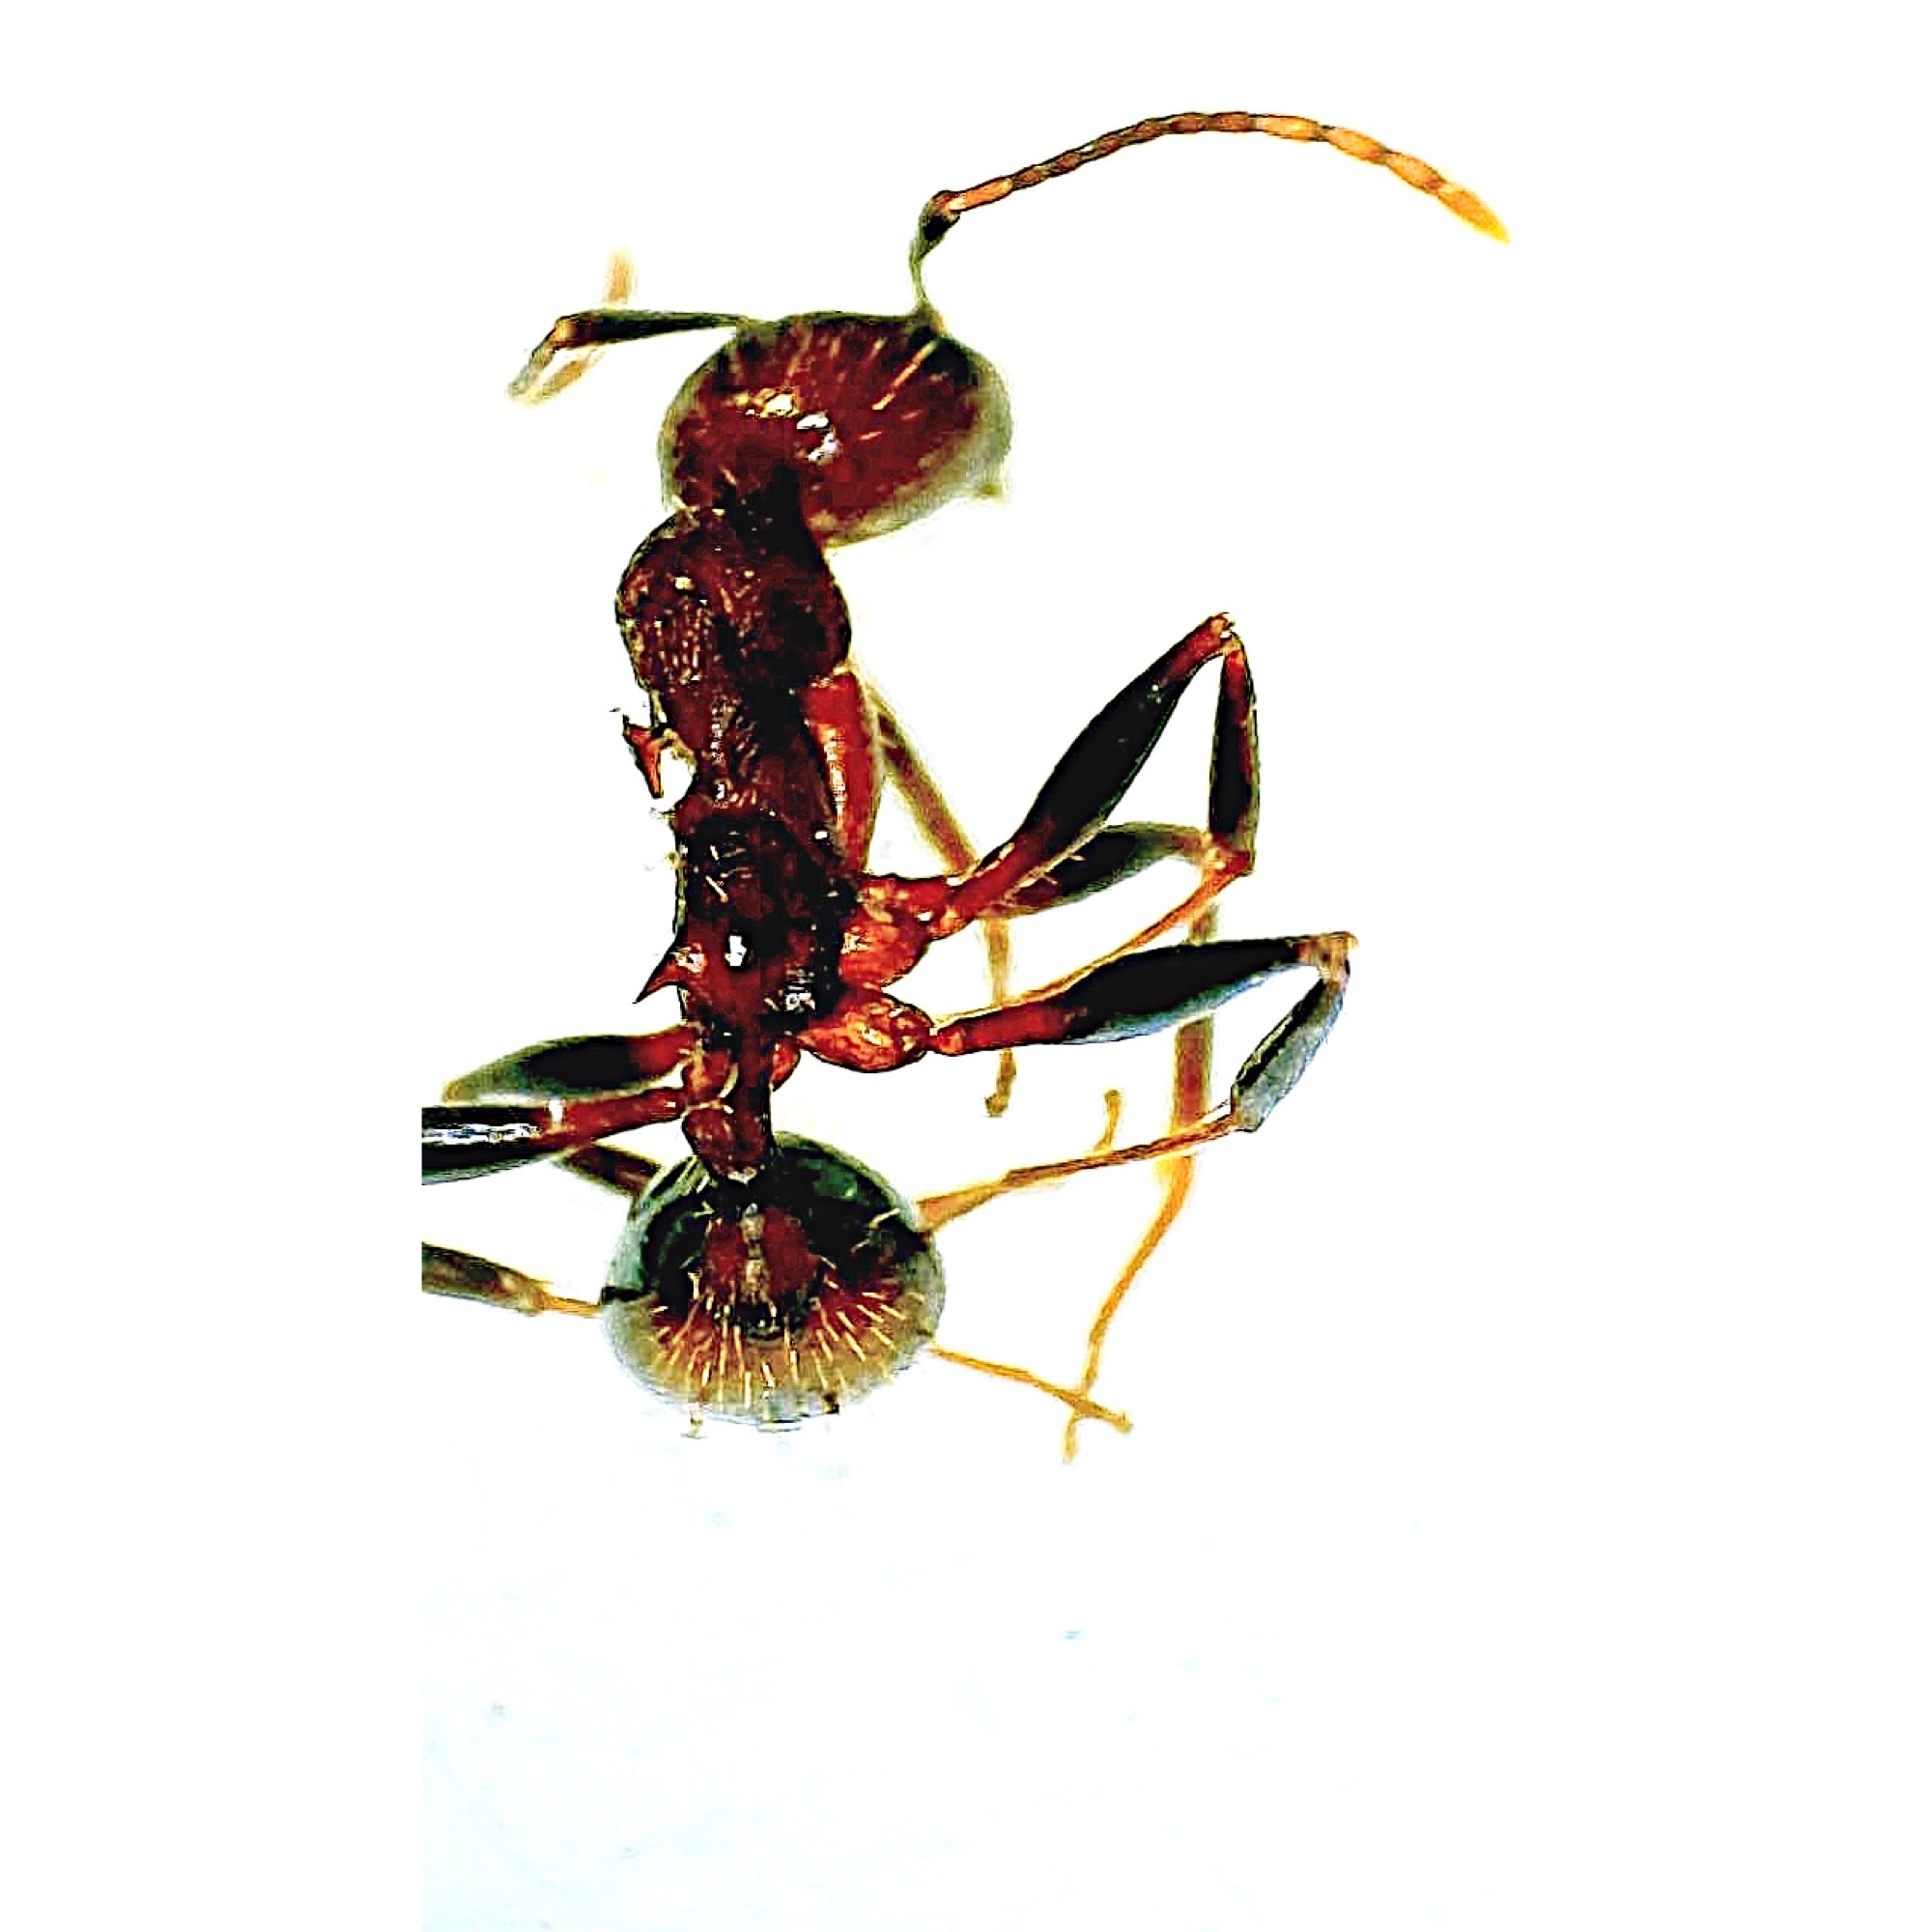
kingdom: Animalia
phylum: Arthropoda
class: Insecta
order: Hymenoptera
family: Formicidae
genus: Aphaenogaster
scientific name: Aphaenogaster lamellidens
